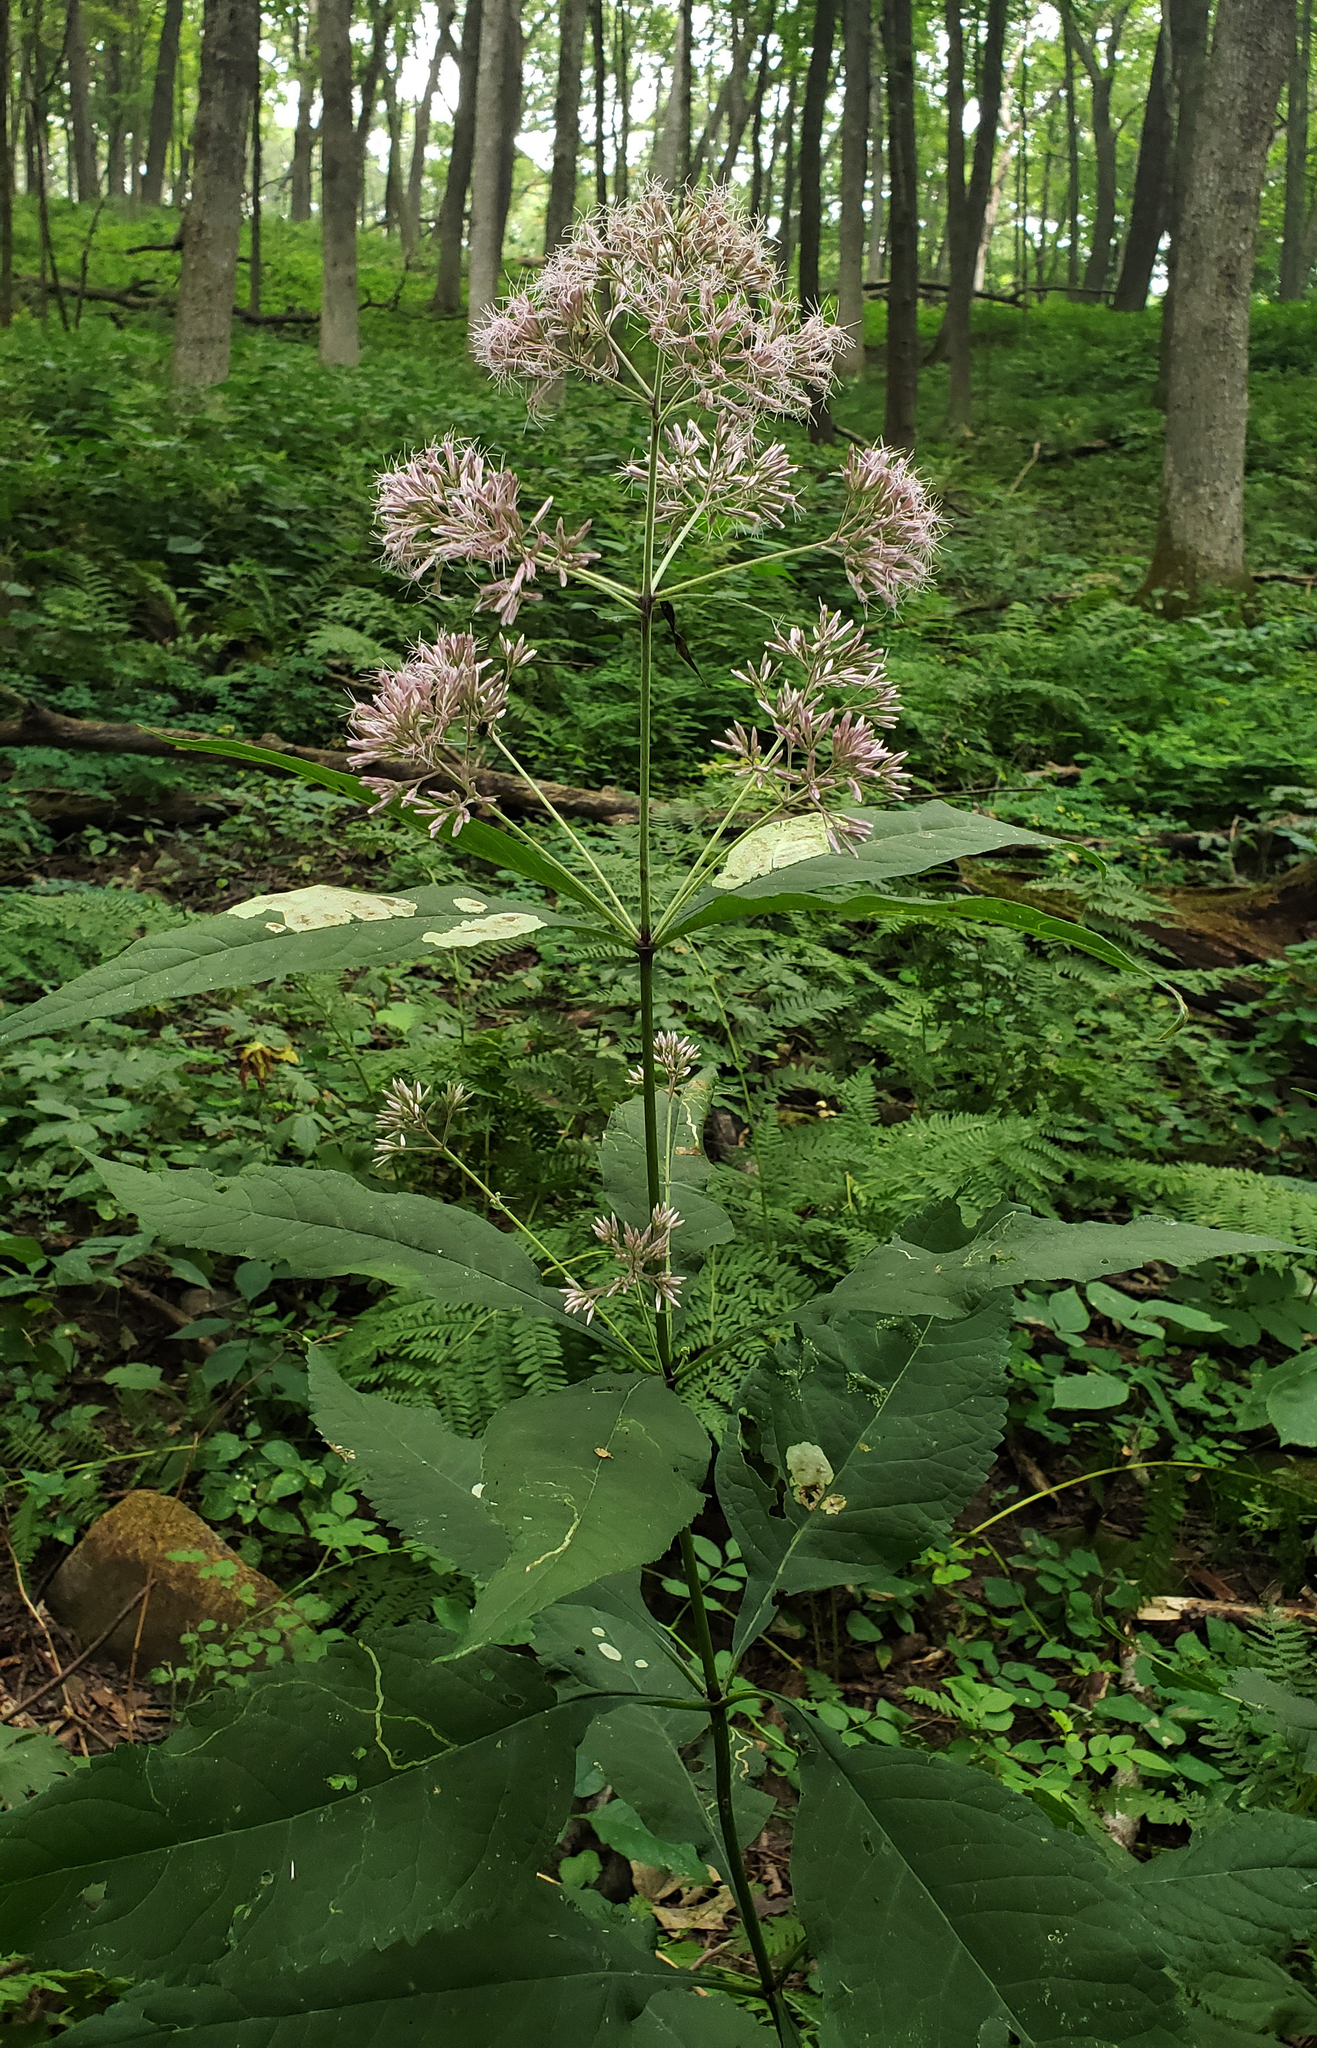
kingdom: Plantae
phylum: Tracheophyta
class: Magnoliopsida
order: Asterales
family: Asteraceae
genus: Eutrochium
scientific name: Eutrochium purpureum
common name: Gravelroot
